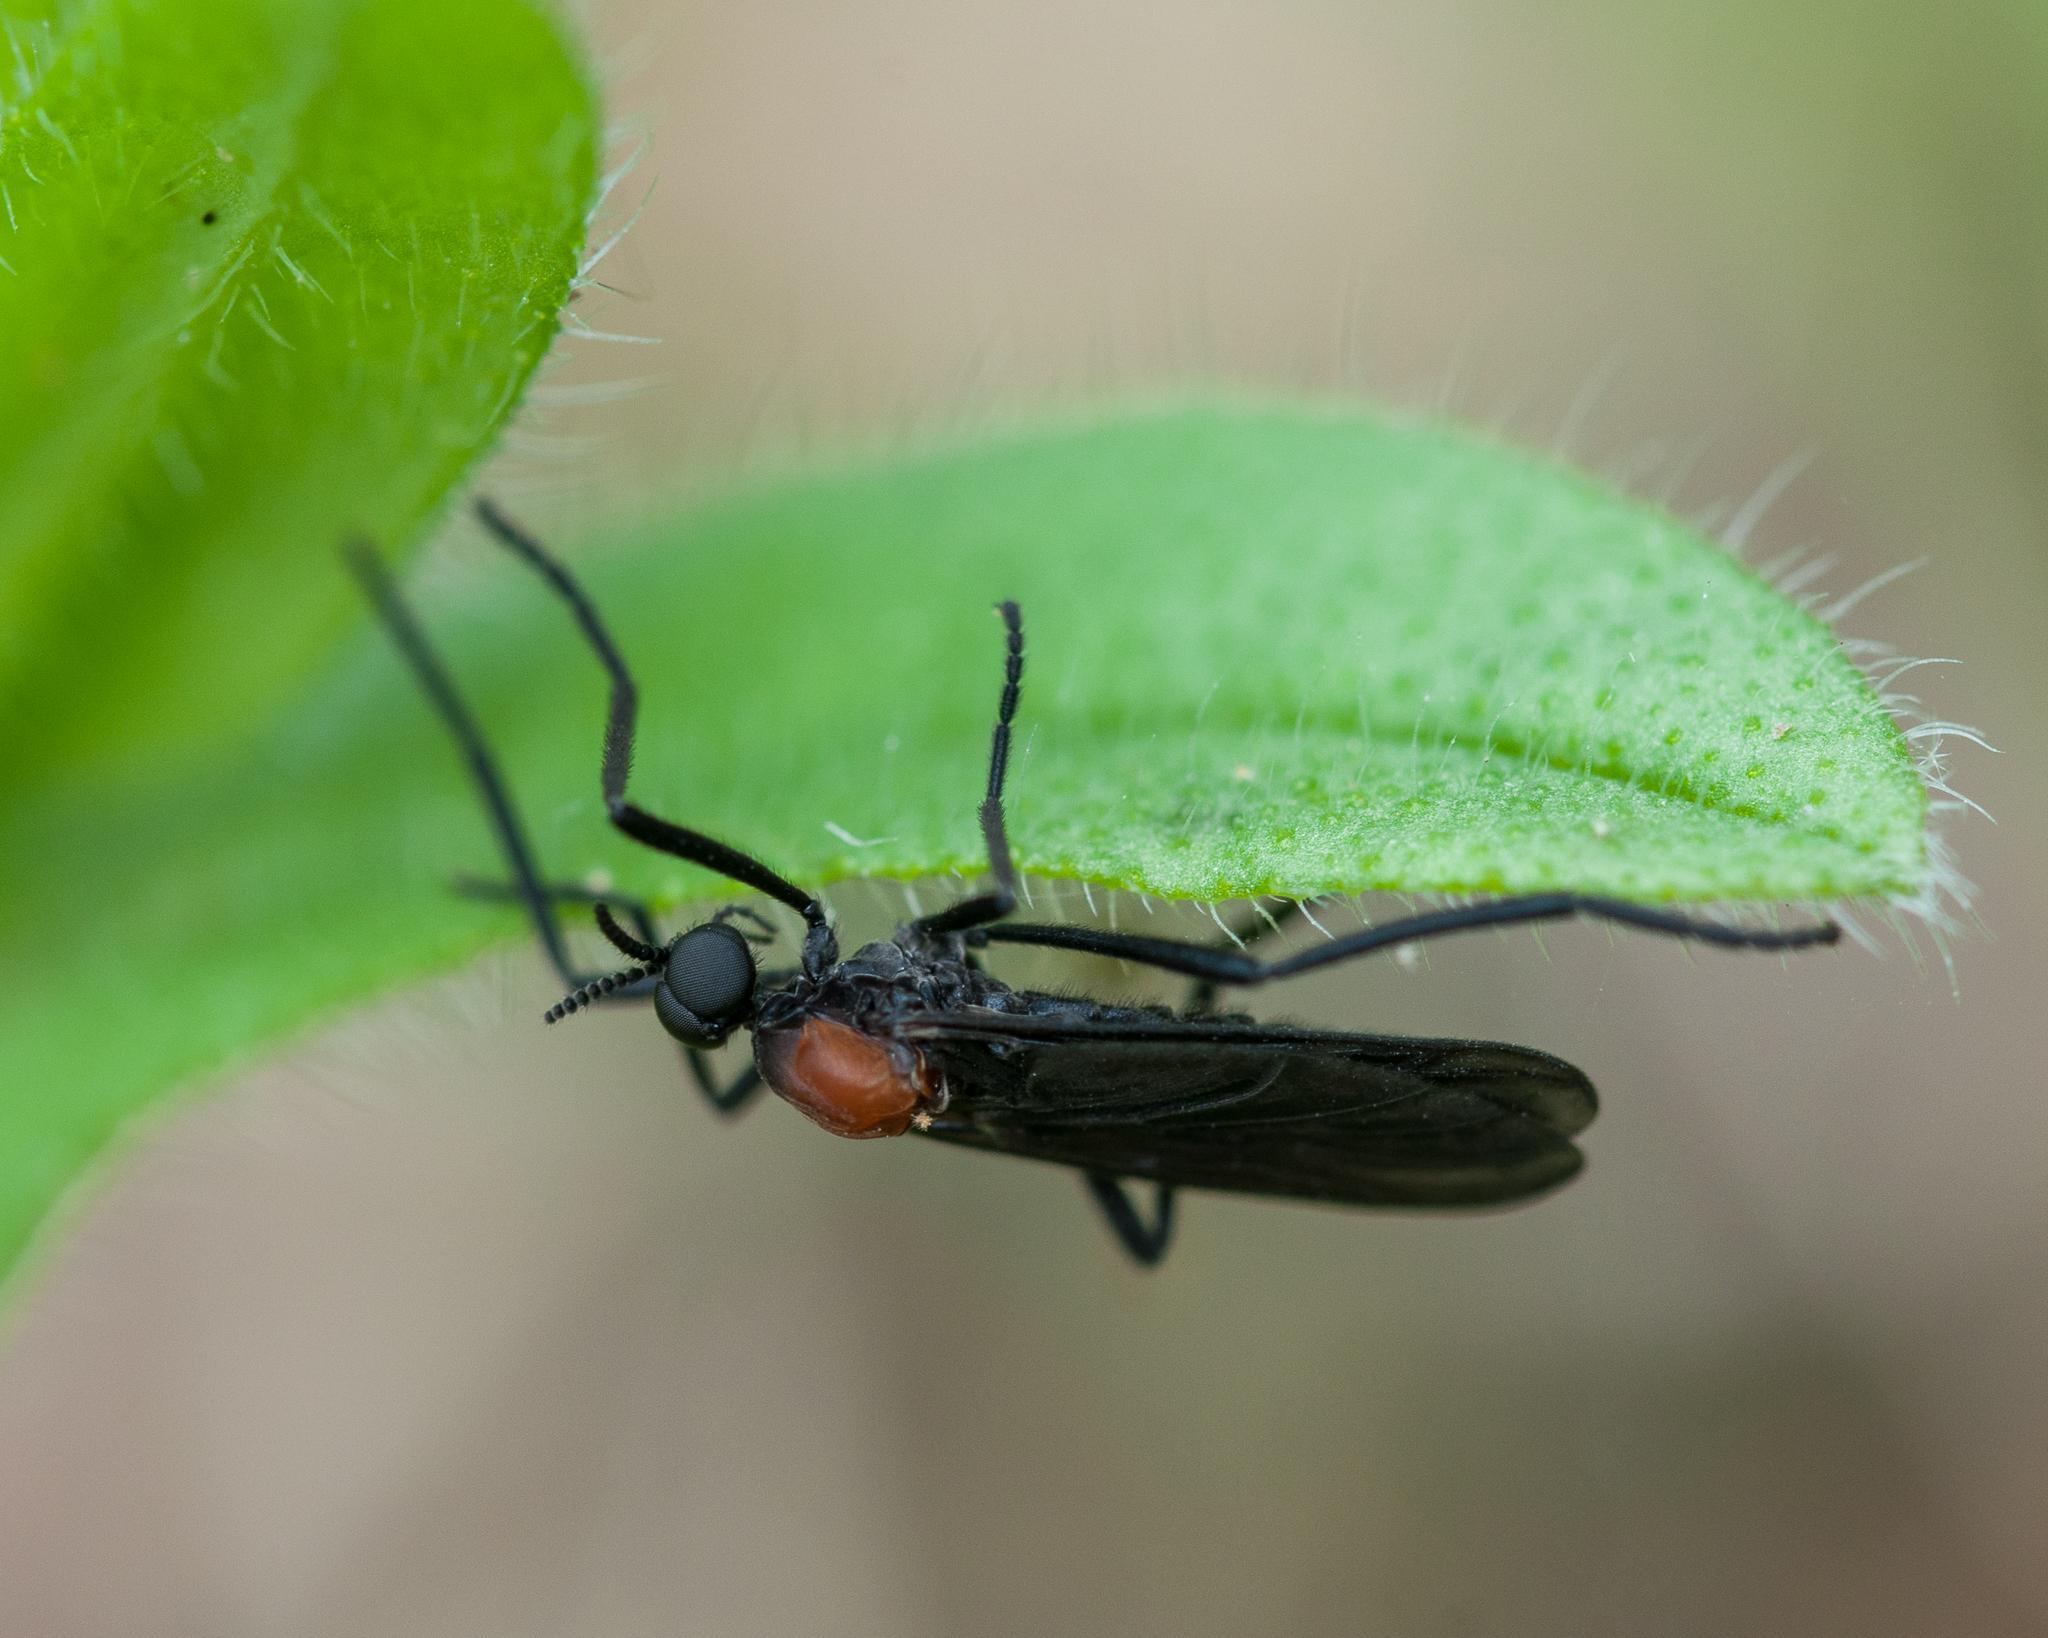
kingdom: Animalia
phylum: Arthropoda
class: Insecta
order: Diptera
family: Bibionidae
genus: Plecia
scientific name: Plecia ruficollis
